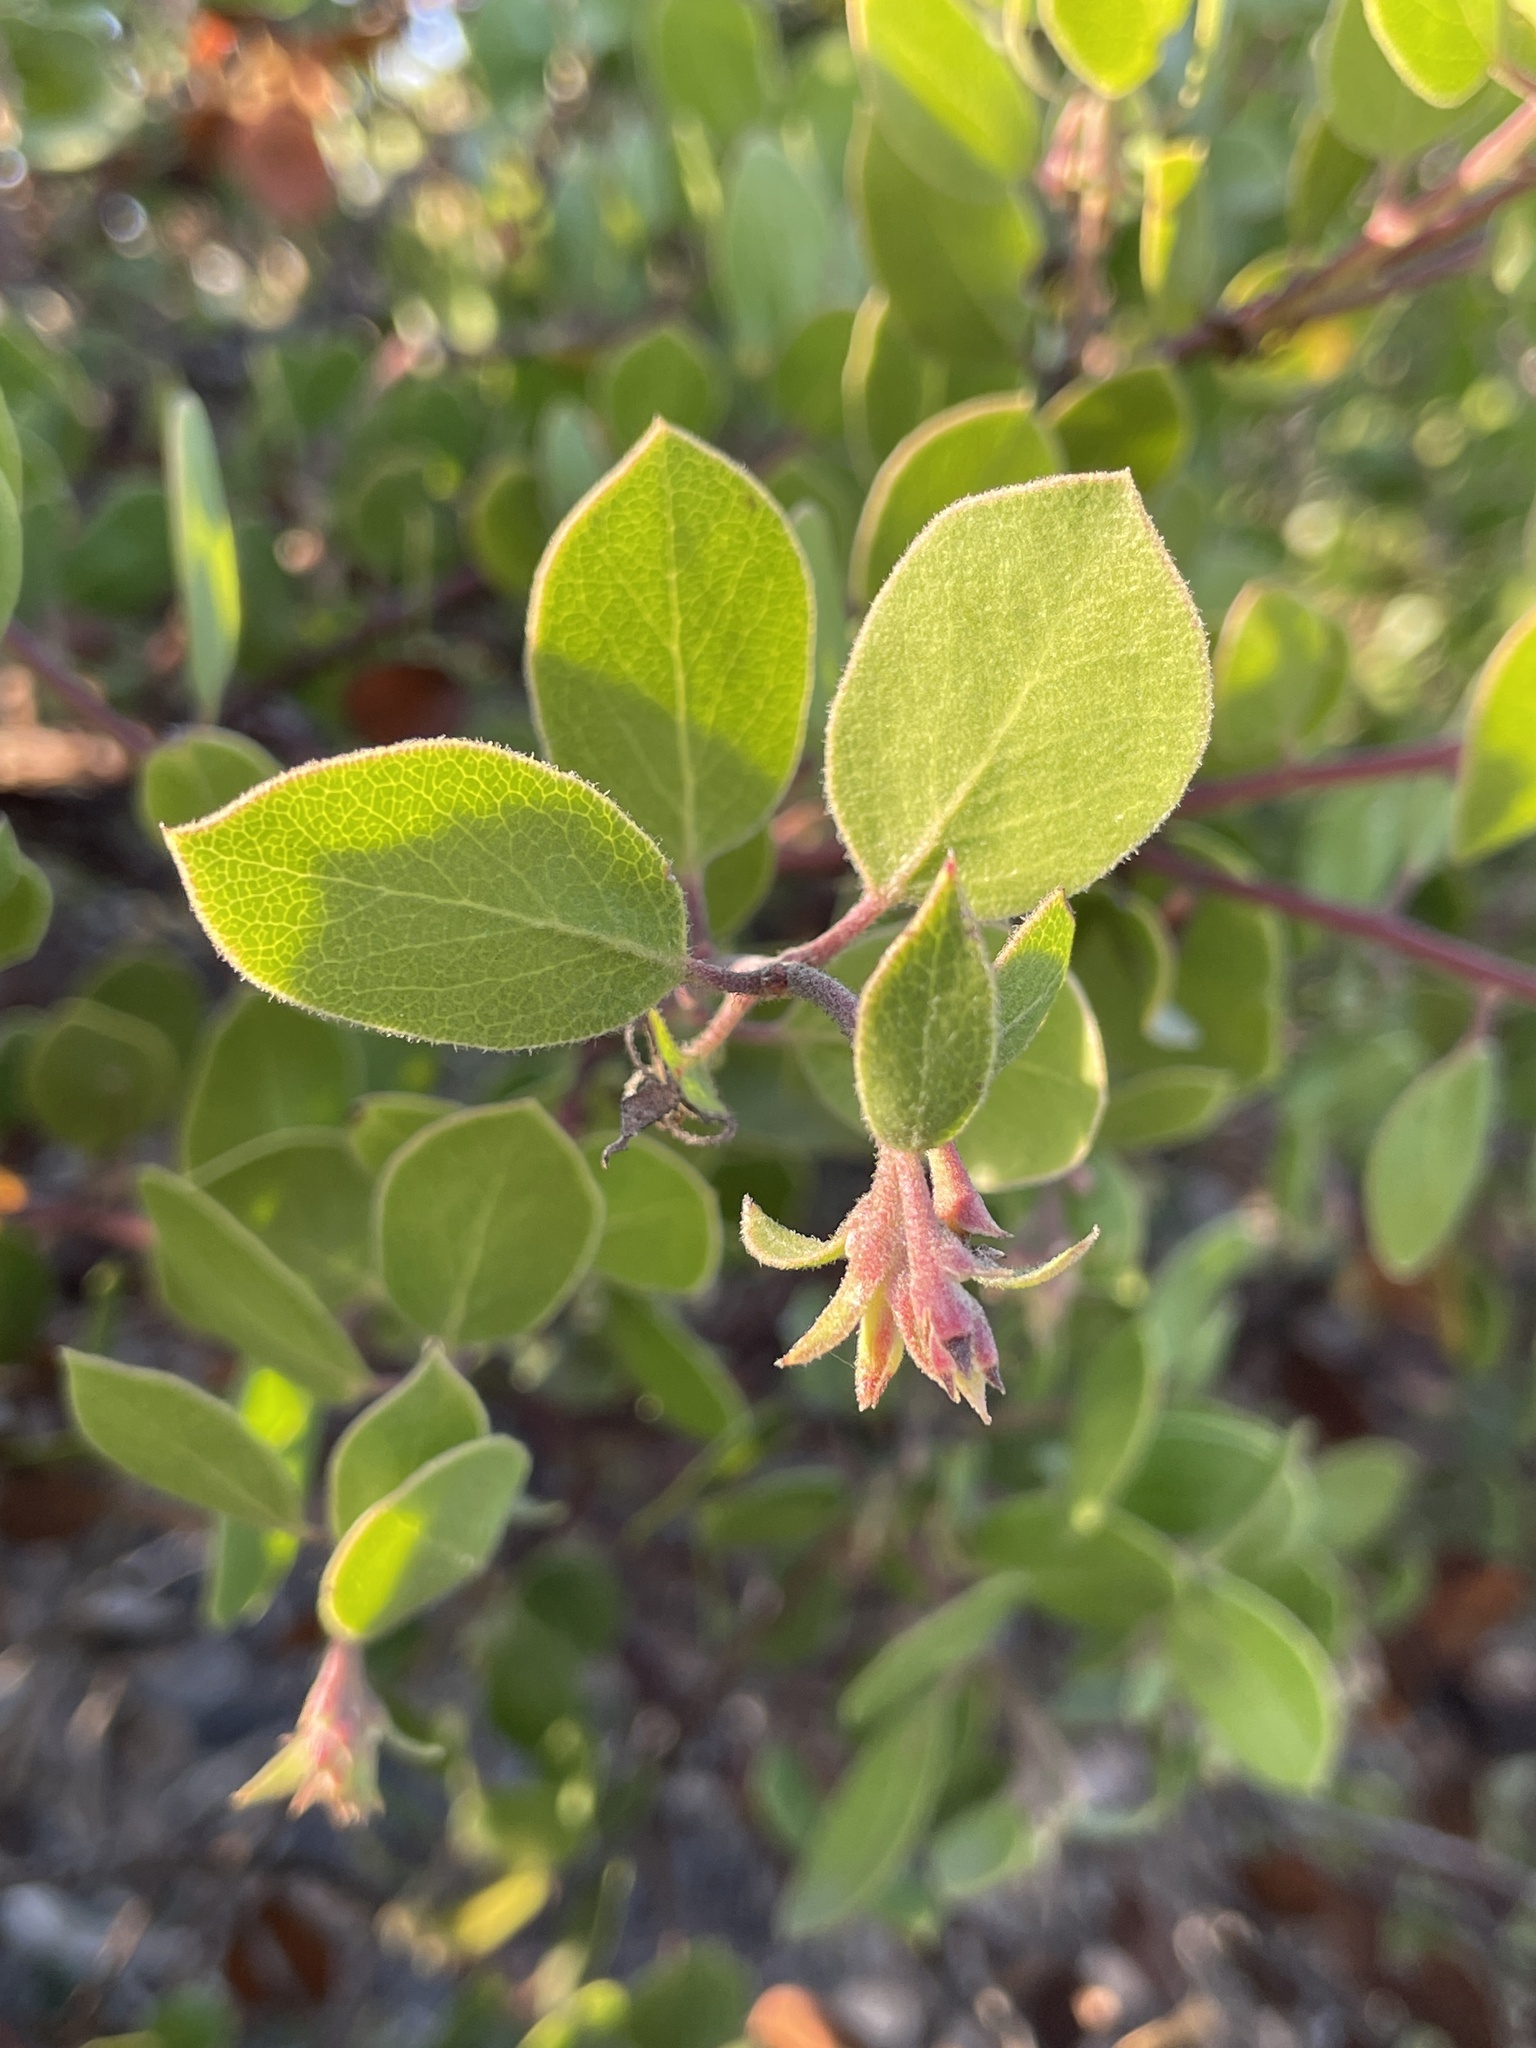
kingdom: Plantae
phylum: Tracheophyta
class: Magnoliopsida
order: Ericales
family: Ericaceae
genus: Arctostaphylos
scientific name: Arctostaphylos rudis
